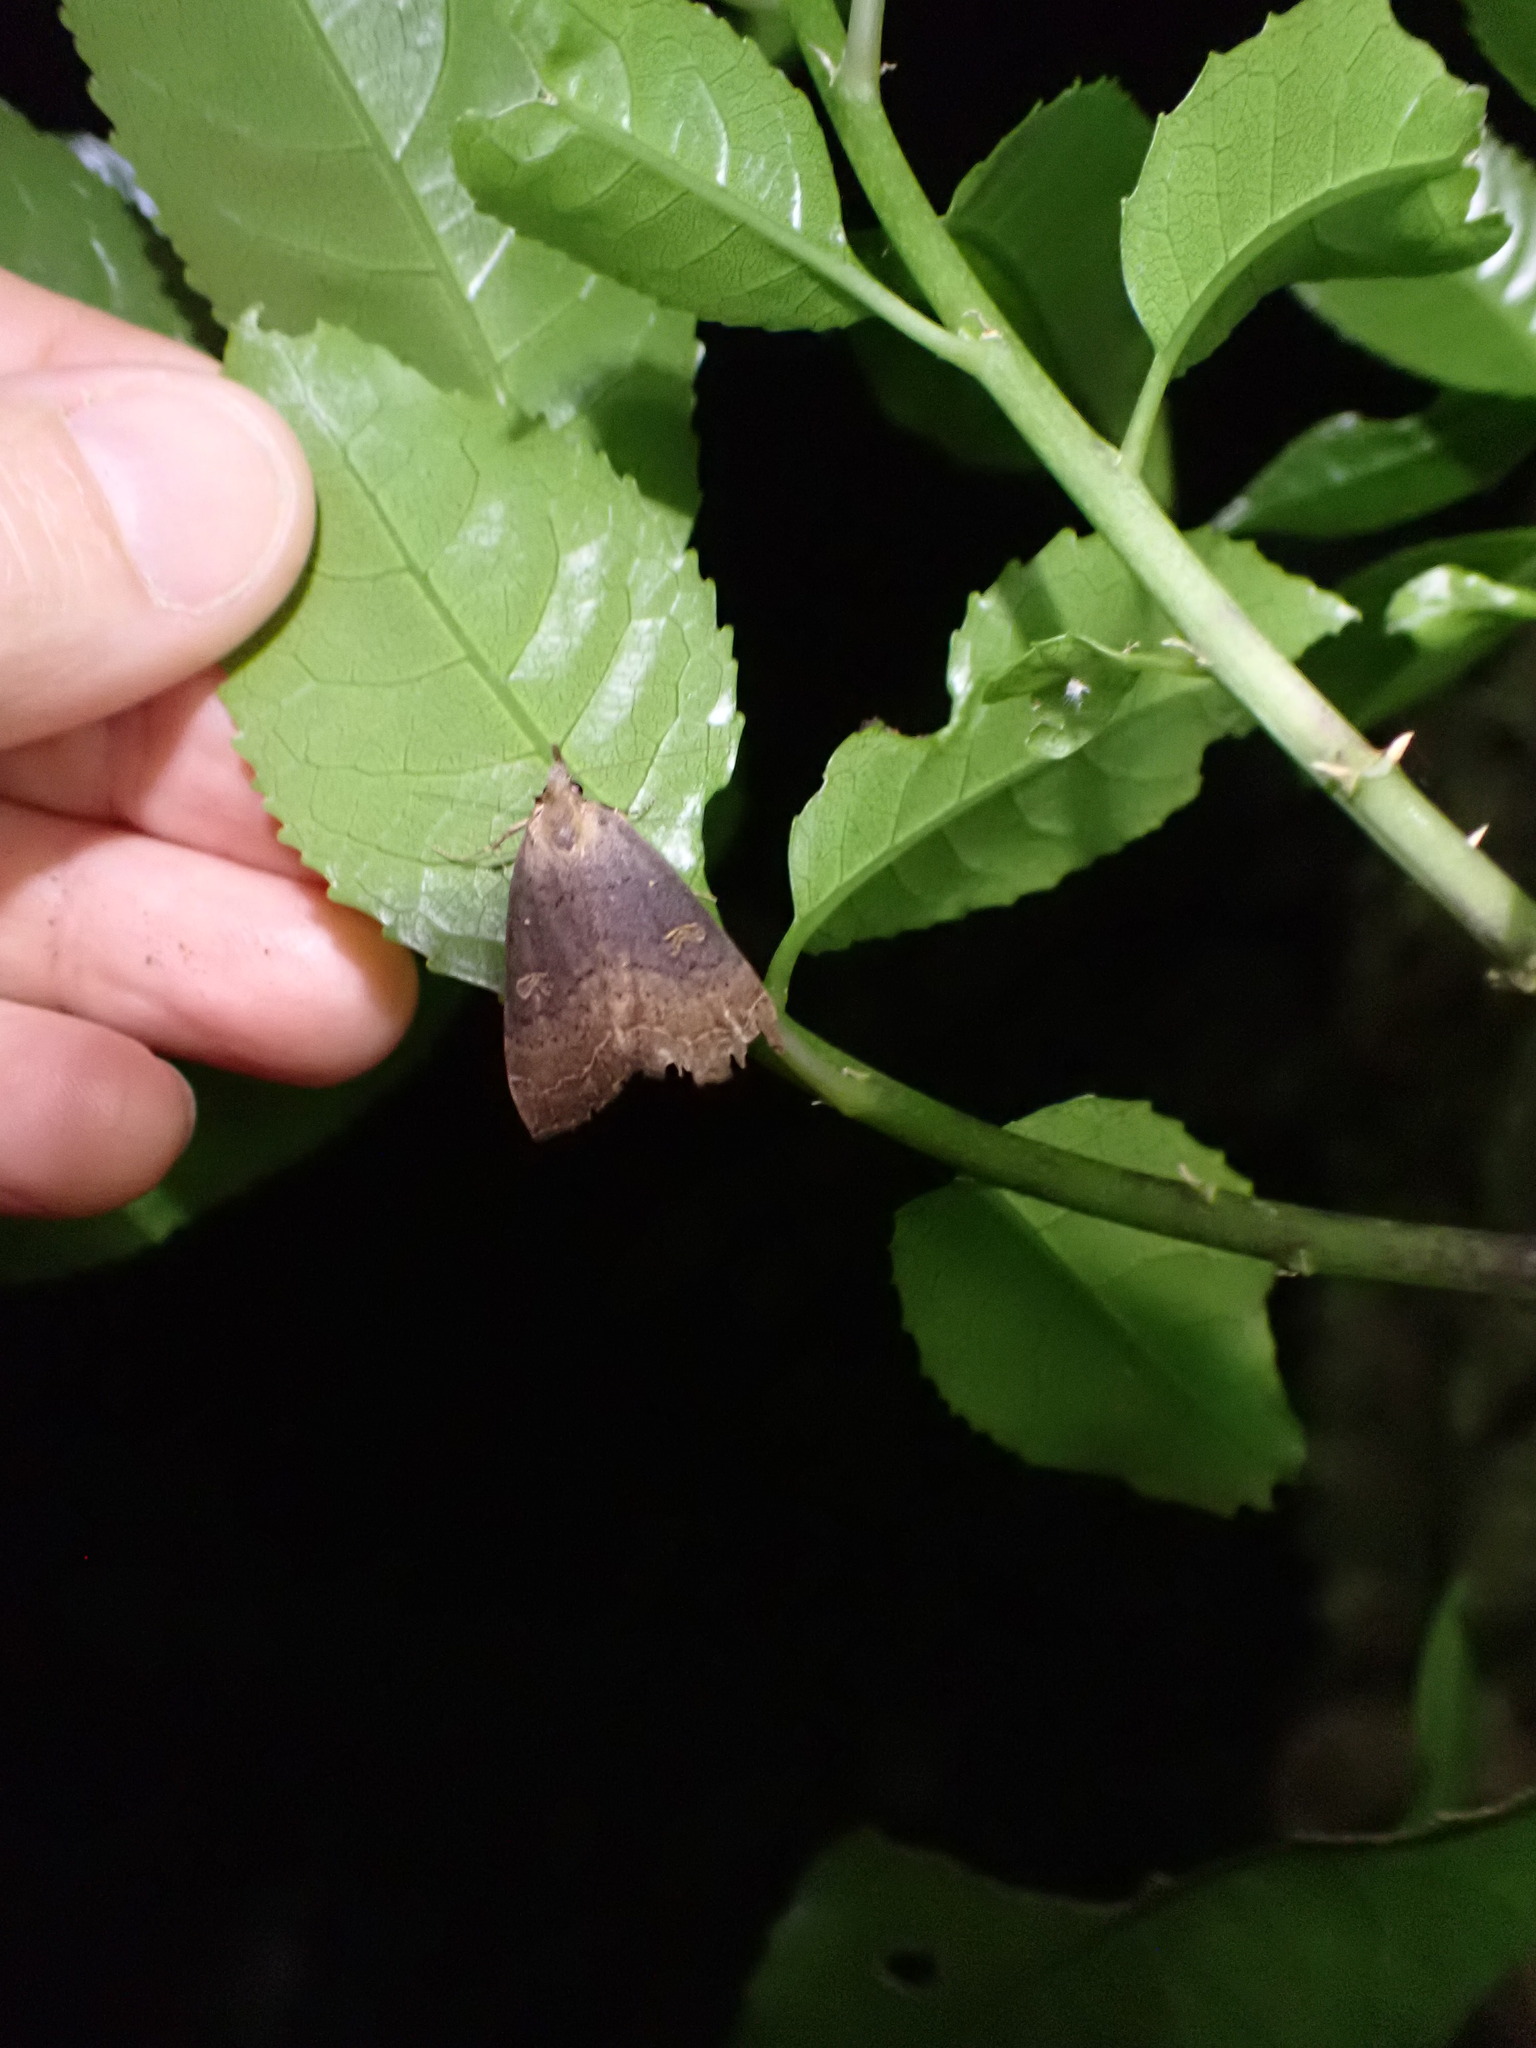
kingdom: Animalia
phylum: Arthropoda
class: Insecta
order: Lepidoptera
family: Erebidae
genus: Rhapsa
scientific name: Rhapsa scotosialis
